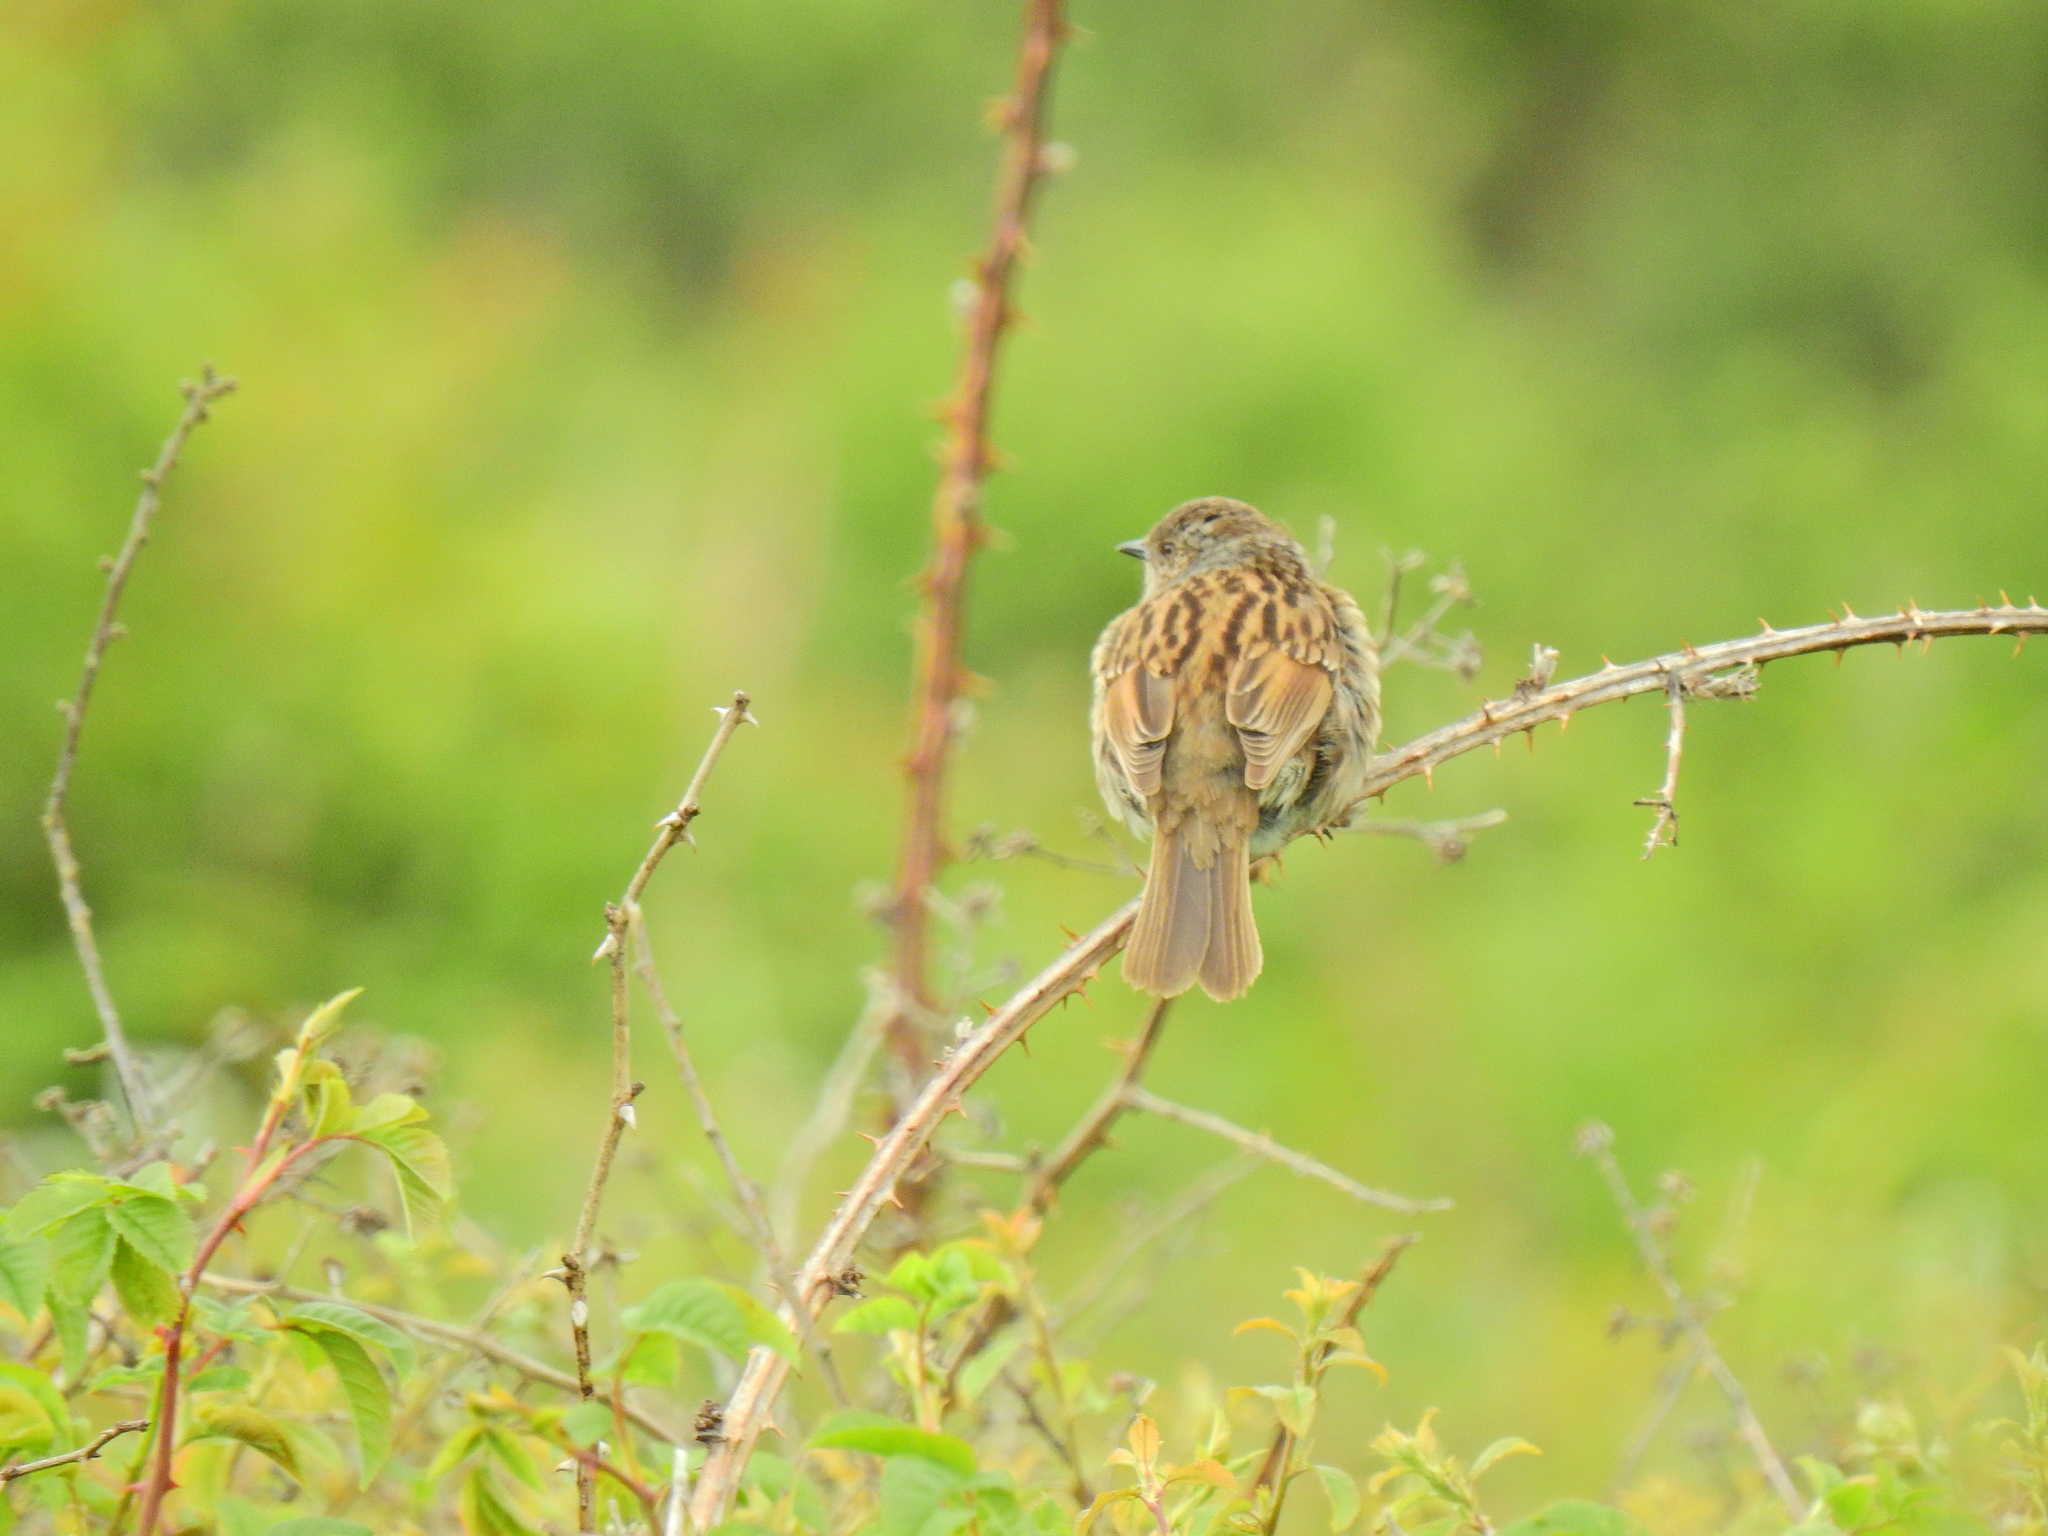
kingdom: Animalia
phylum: Chordata
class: Aves
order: Passeriformes
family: Prunellidae
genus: Prunella
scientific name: Prunella modularis
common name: Dunnock
